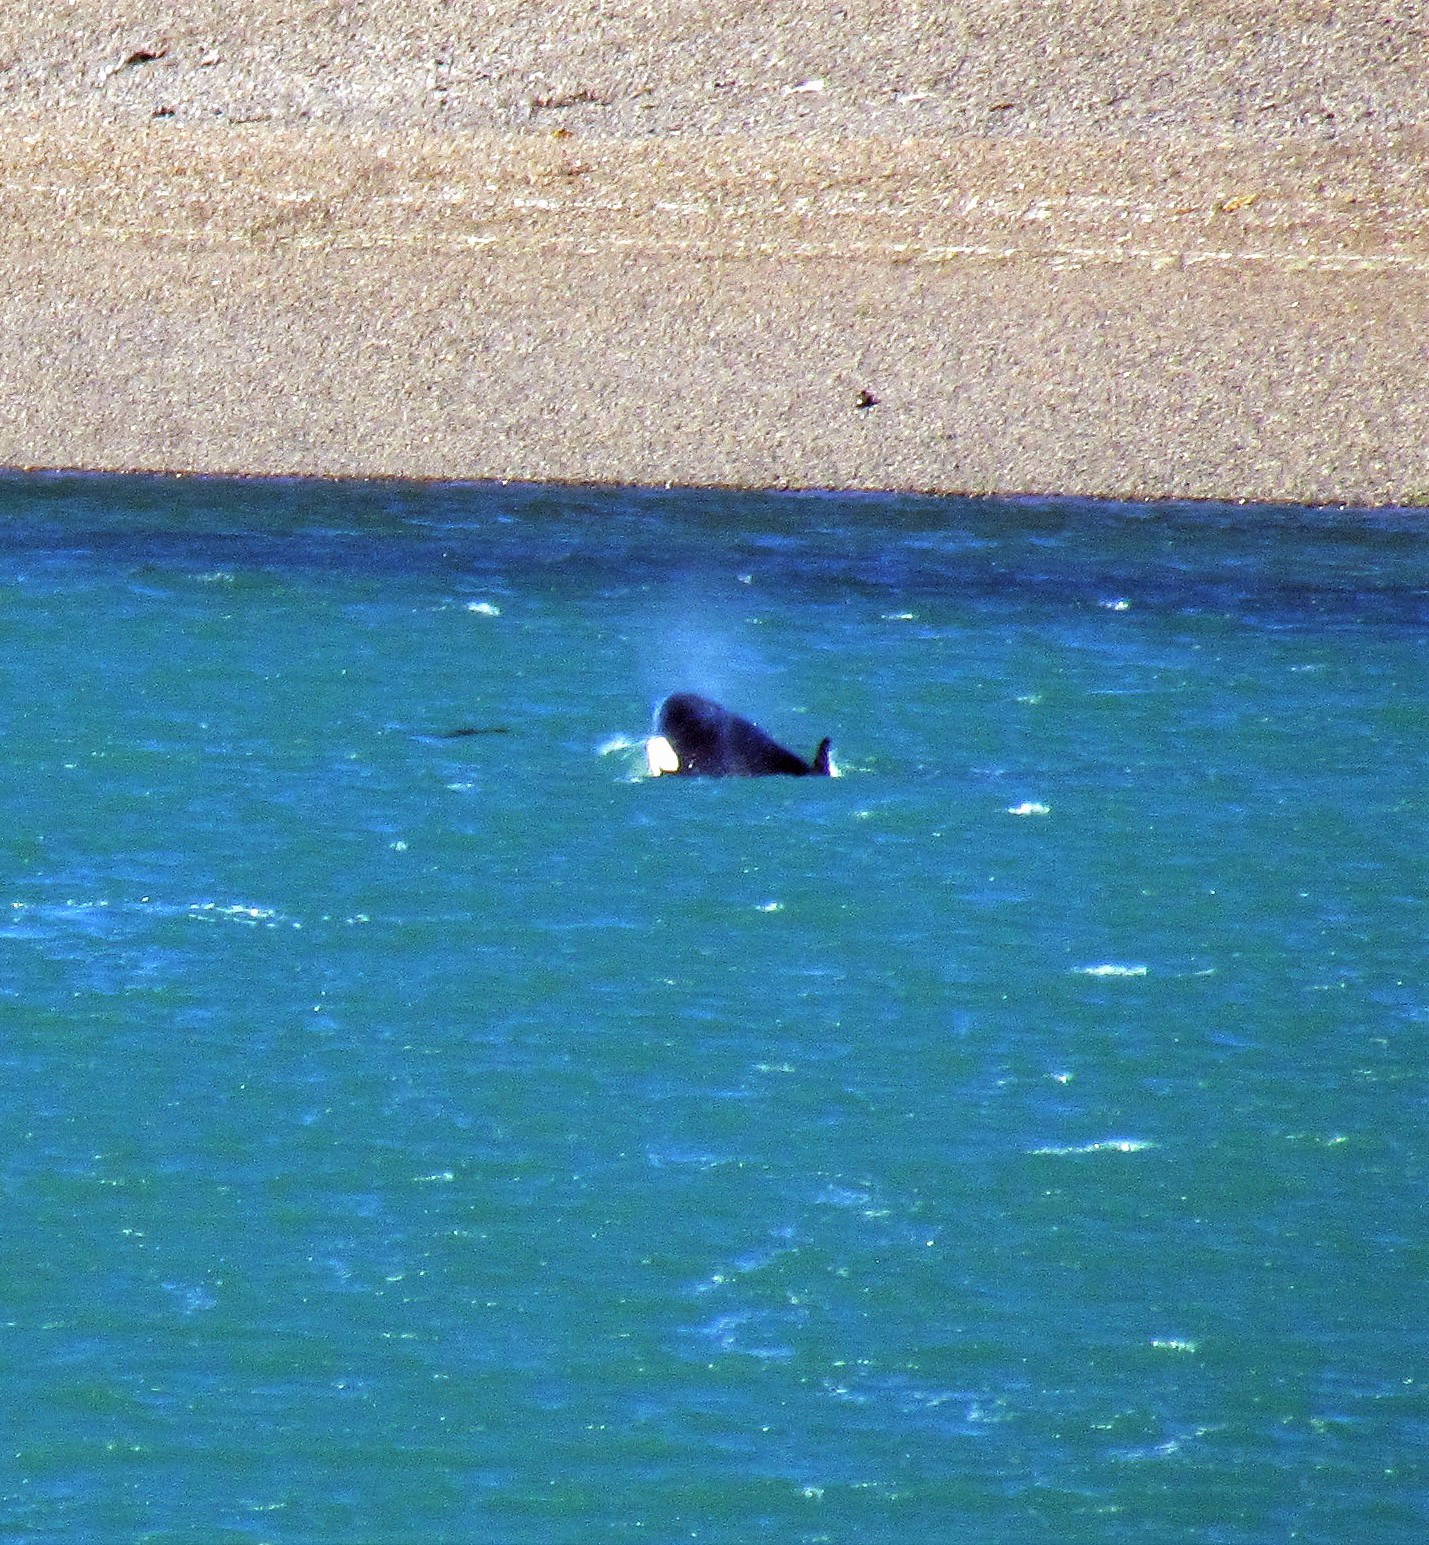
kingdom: Animalia
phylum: Chordata
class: Mammalia
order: Cetacea
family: Delphinidae
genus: Orcinus
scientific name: Orcinus orca
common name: Killer whale
